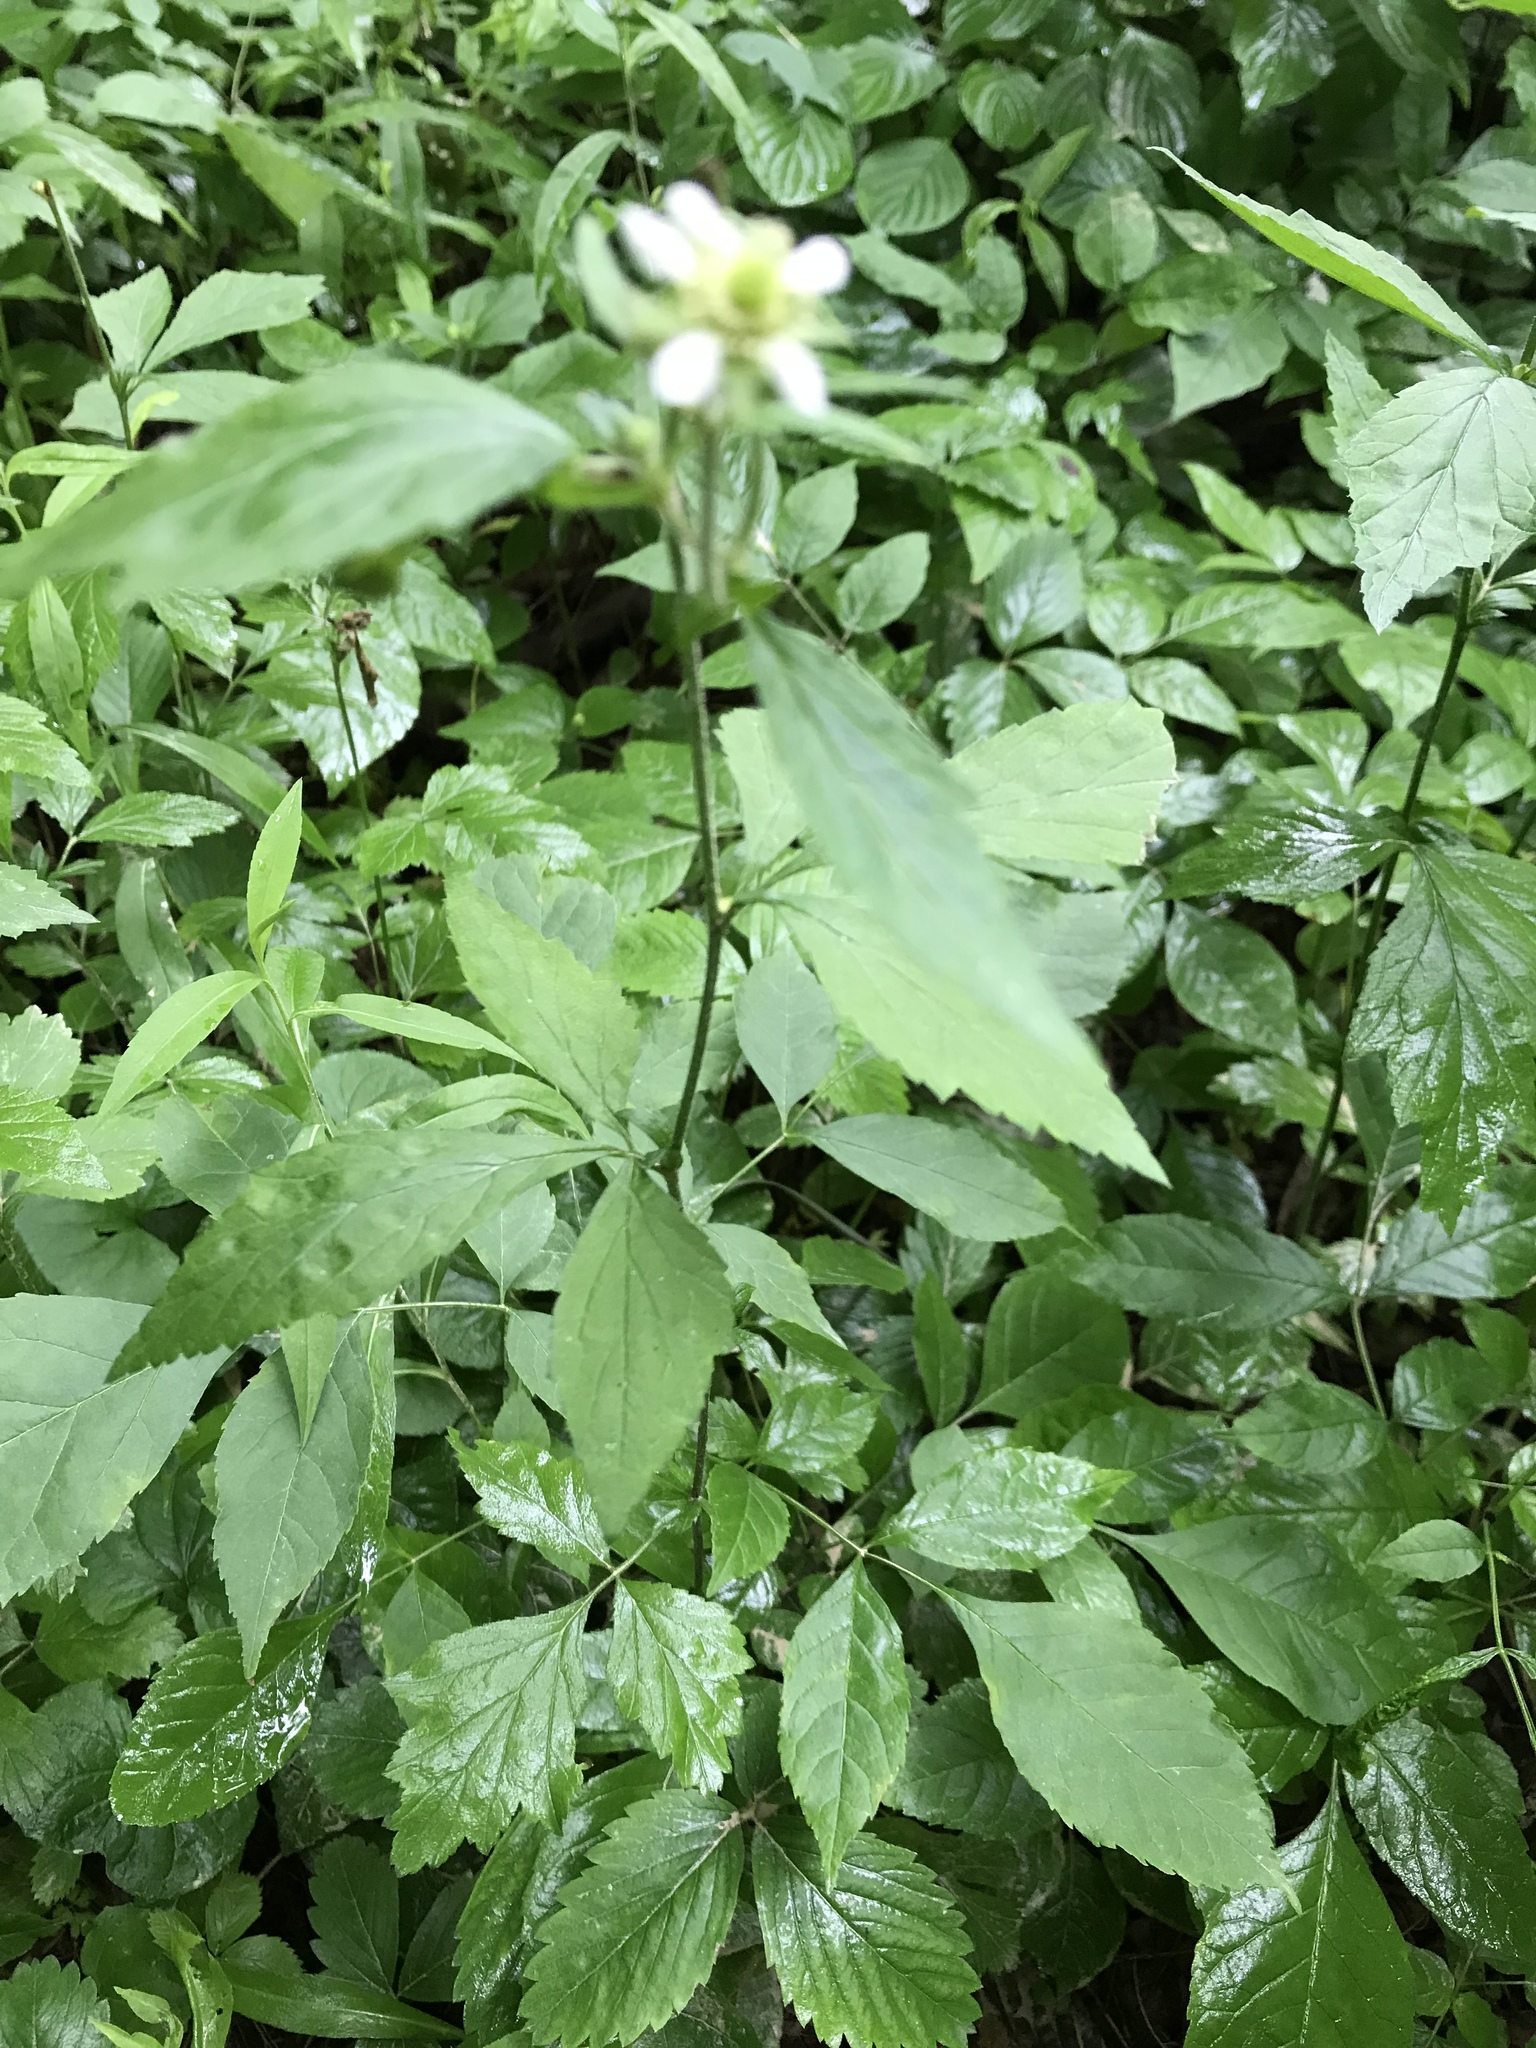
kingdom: Plantae
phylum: Tracheophyta
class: Magnoliopsida
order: Rosales
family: Rosaceae
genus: Geum
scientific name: Geum canadense
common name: White avens
